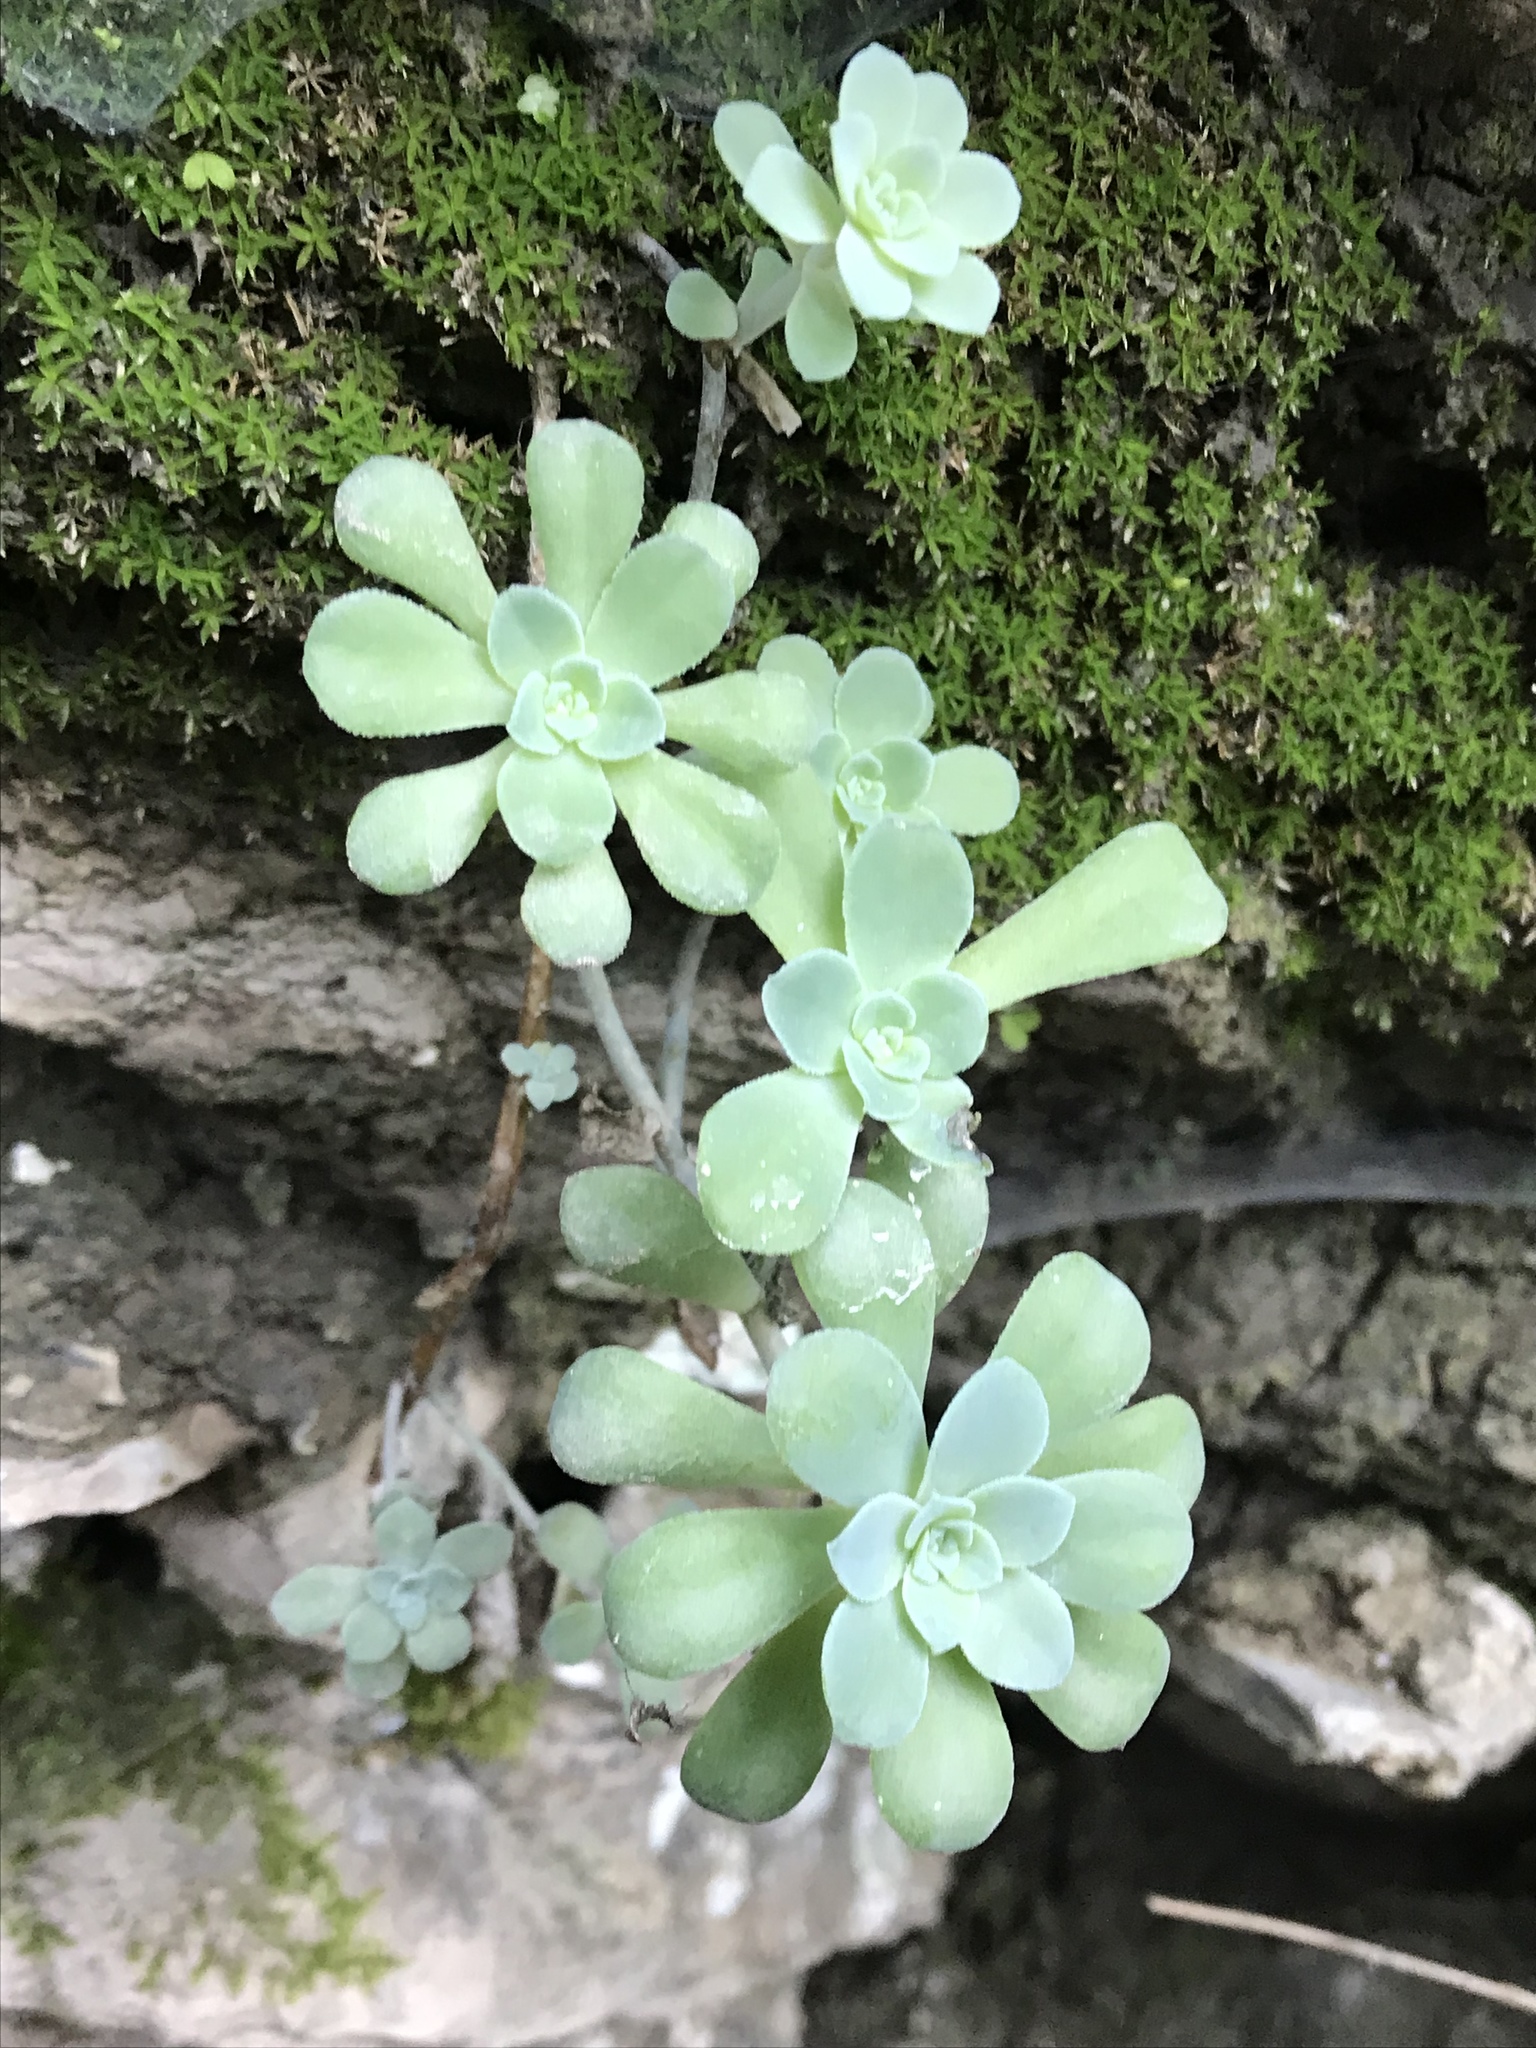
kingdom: Plantae
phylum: Tracheophyta
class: Magnoliopsida
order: Saxifragales
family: Crassulaceae
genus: Sedum
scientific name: Sedum palmeri
